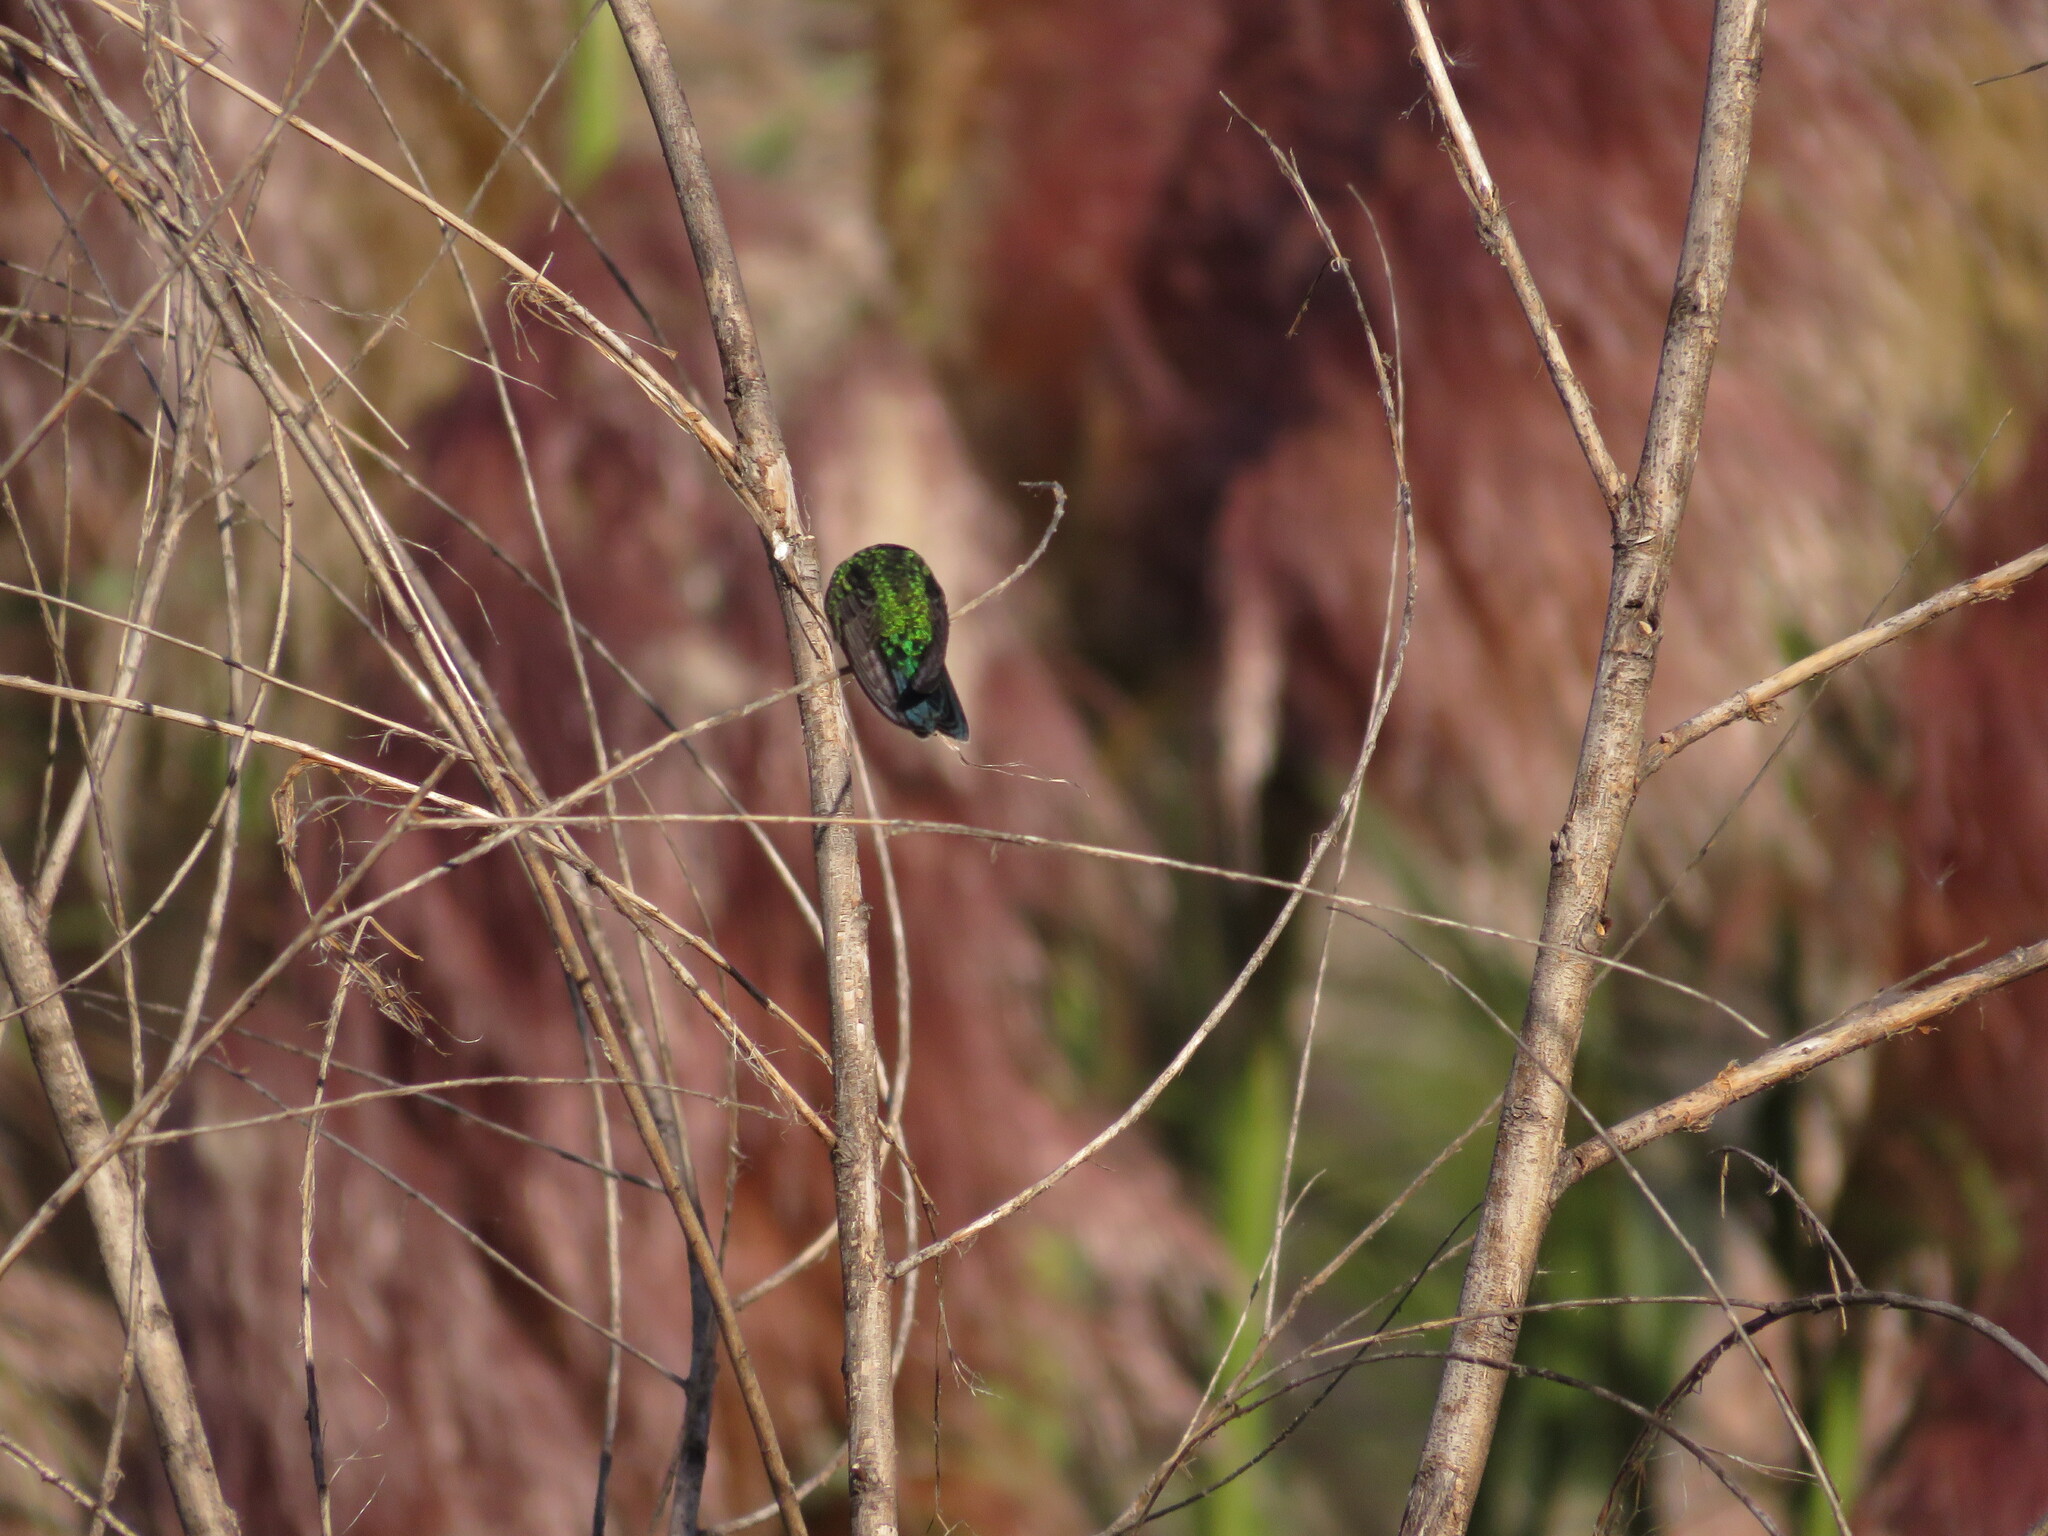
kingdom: Animalia
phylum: Chordata
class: Aves
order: Apodiformes
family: Trochilidae
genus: Chlorostilbon
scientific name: Chlorostilbon lucidus
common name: Glittering-bellied emerald
